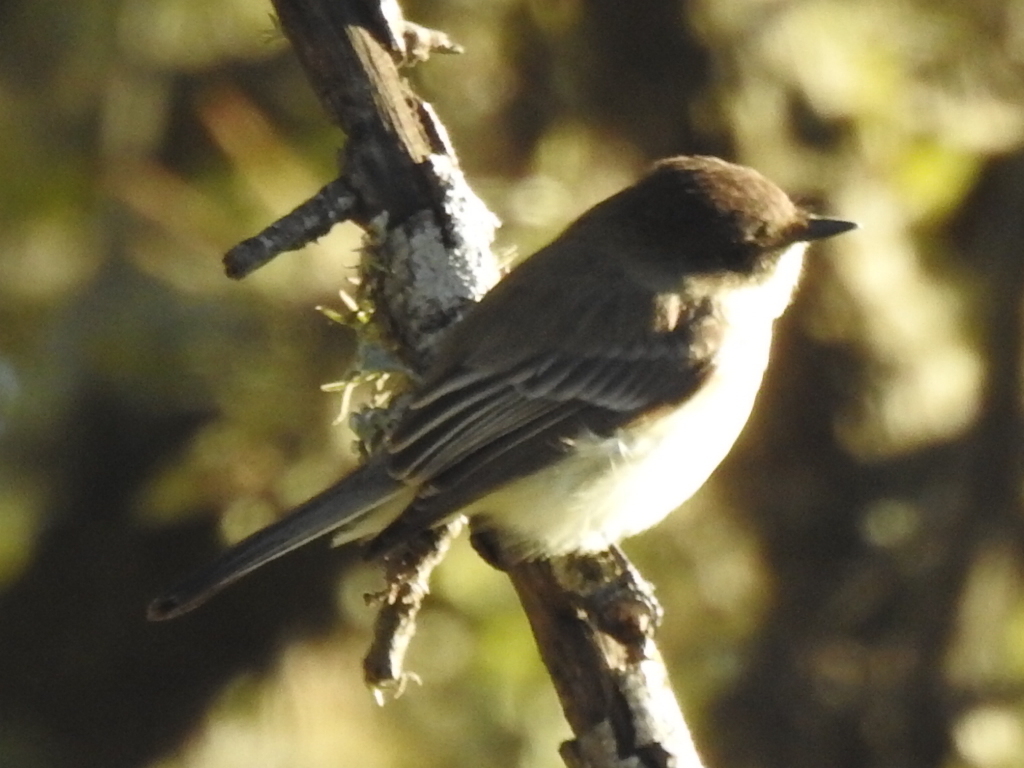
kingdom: Animalia
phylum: Chordata
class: Aves
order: Passeriformes
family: Tyrannidae
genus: Sayornis
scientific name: Sayornis phoebe
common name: Eastern phoebe
